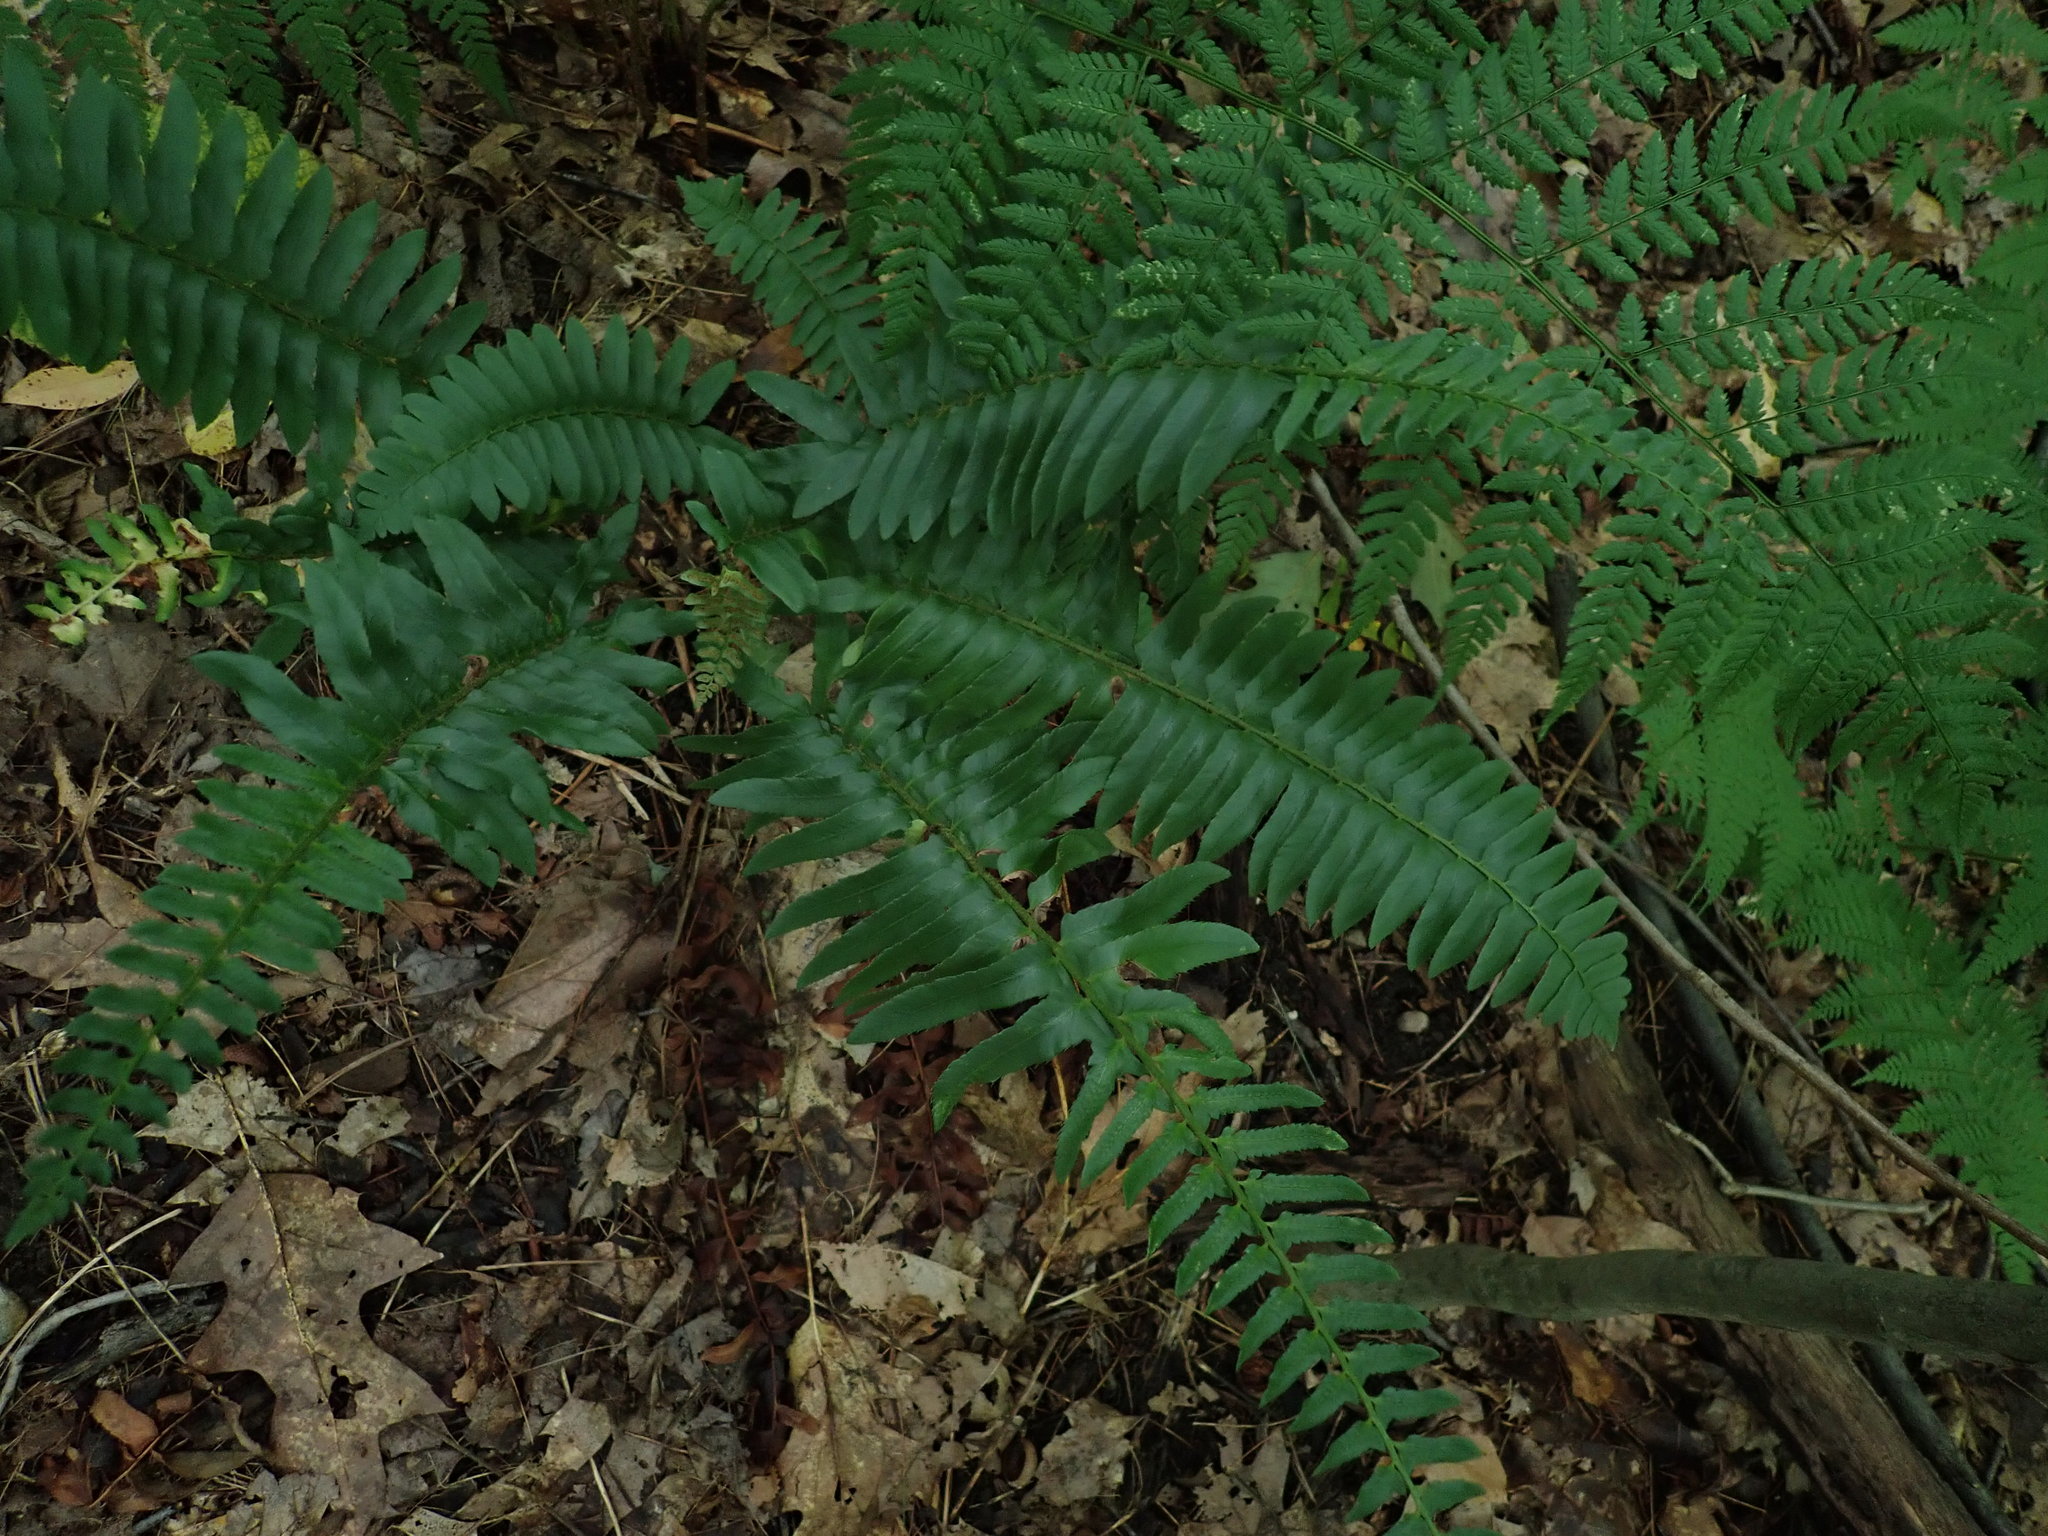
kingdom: Plantae
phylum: Tracheophyta
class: Polypodiopsida
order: Polypodiales
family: Dryopteridaceae
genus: Polystichum
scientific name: Polystichum acrostichoides
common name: Christmas fern
